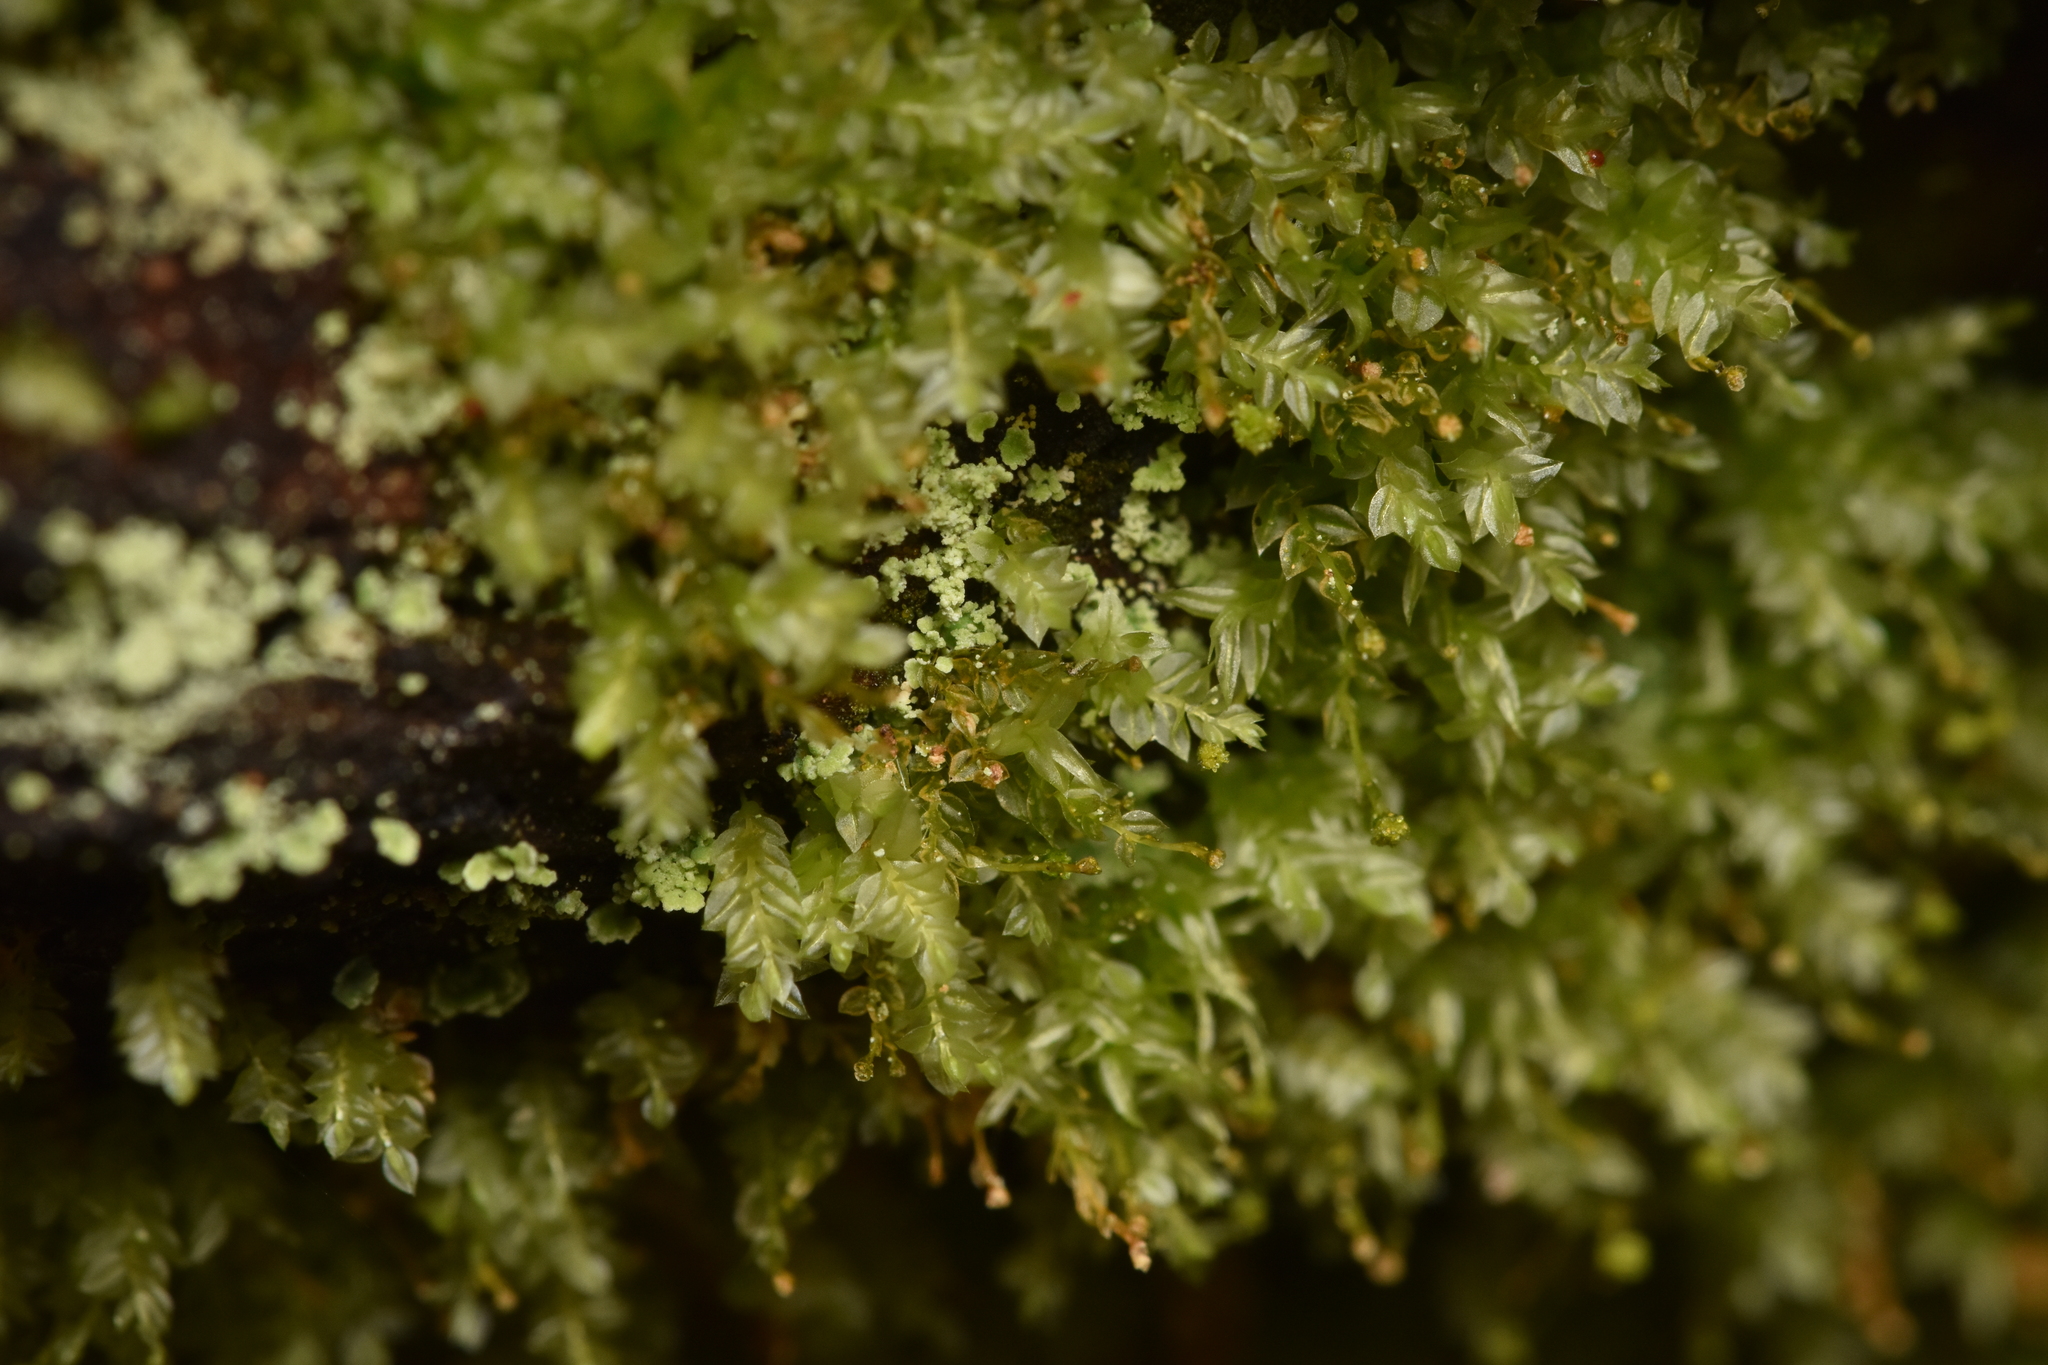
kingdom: Plantae
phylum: Bryophyta
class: Polytrichopsida
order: Tetraphidales
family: Tetraphidaceae
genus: Tetraphis
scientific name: Tetraphis pellucida
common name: Common four-toothed moss
